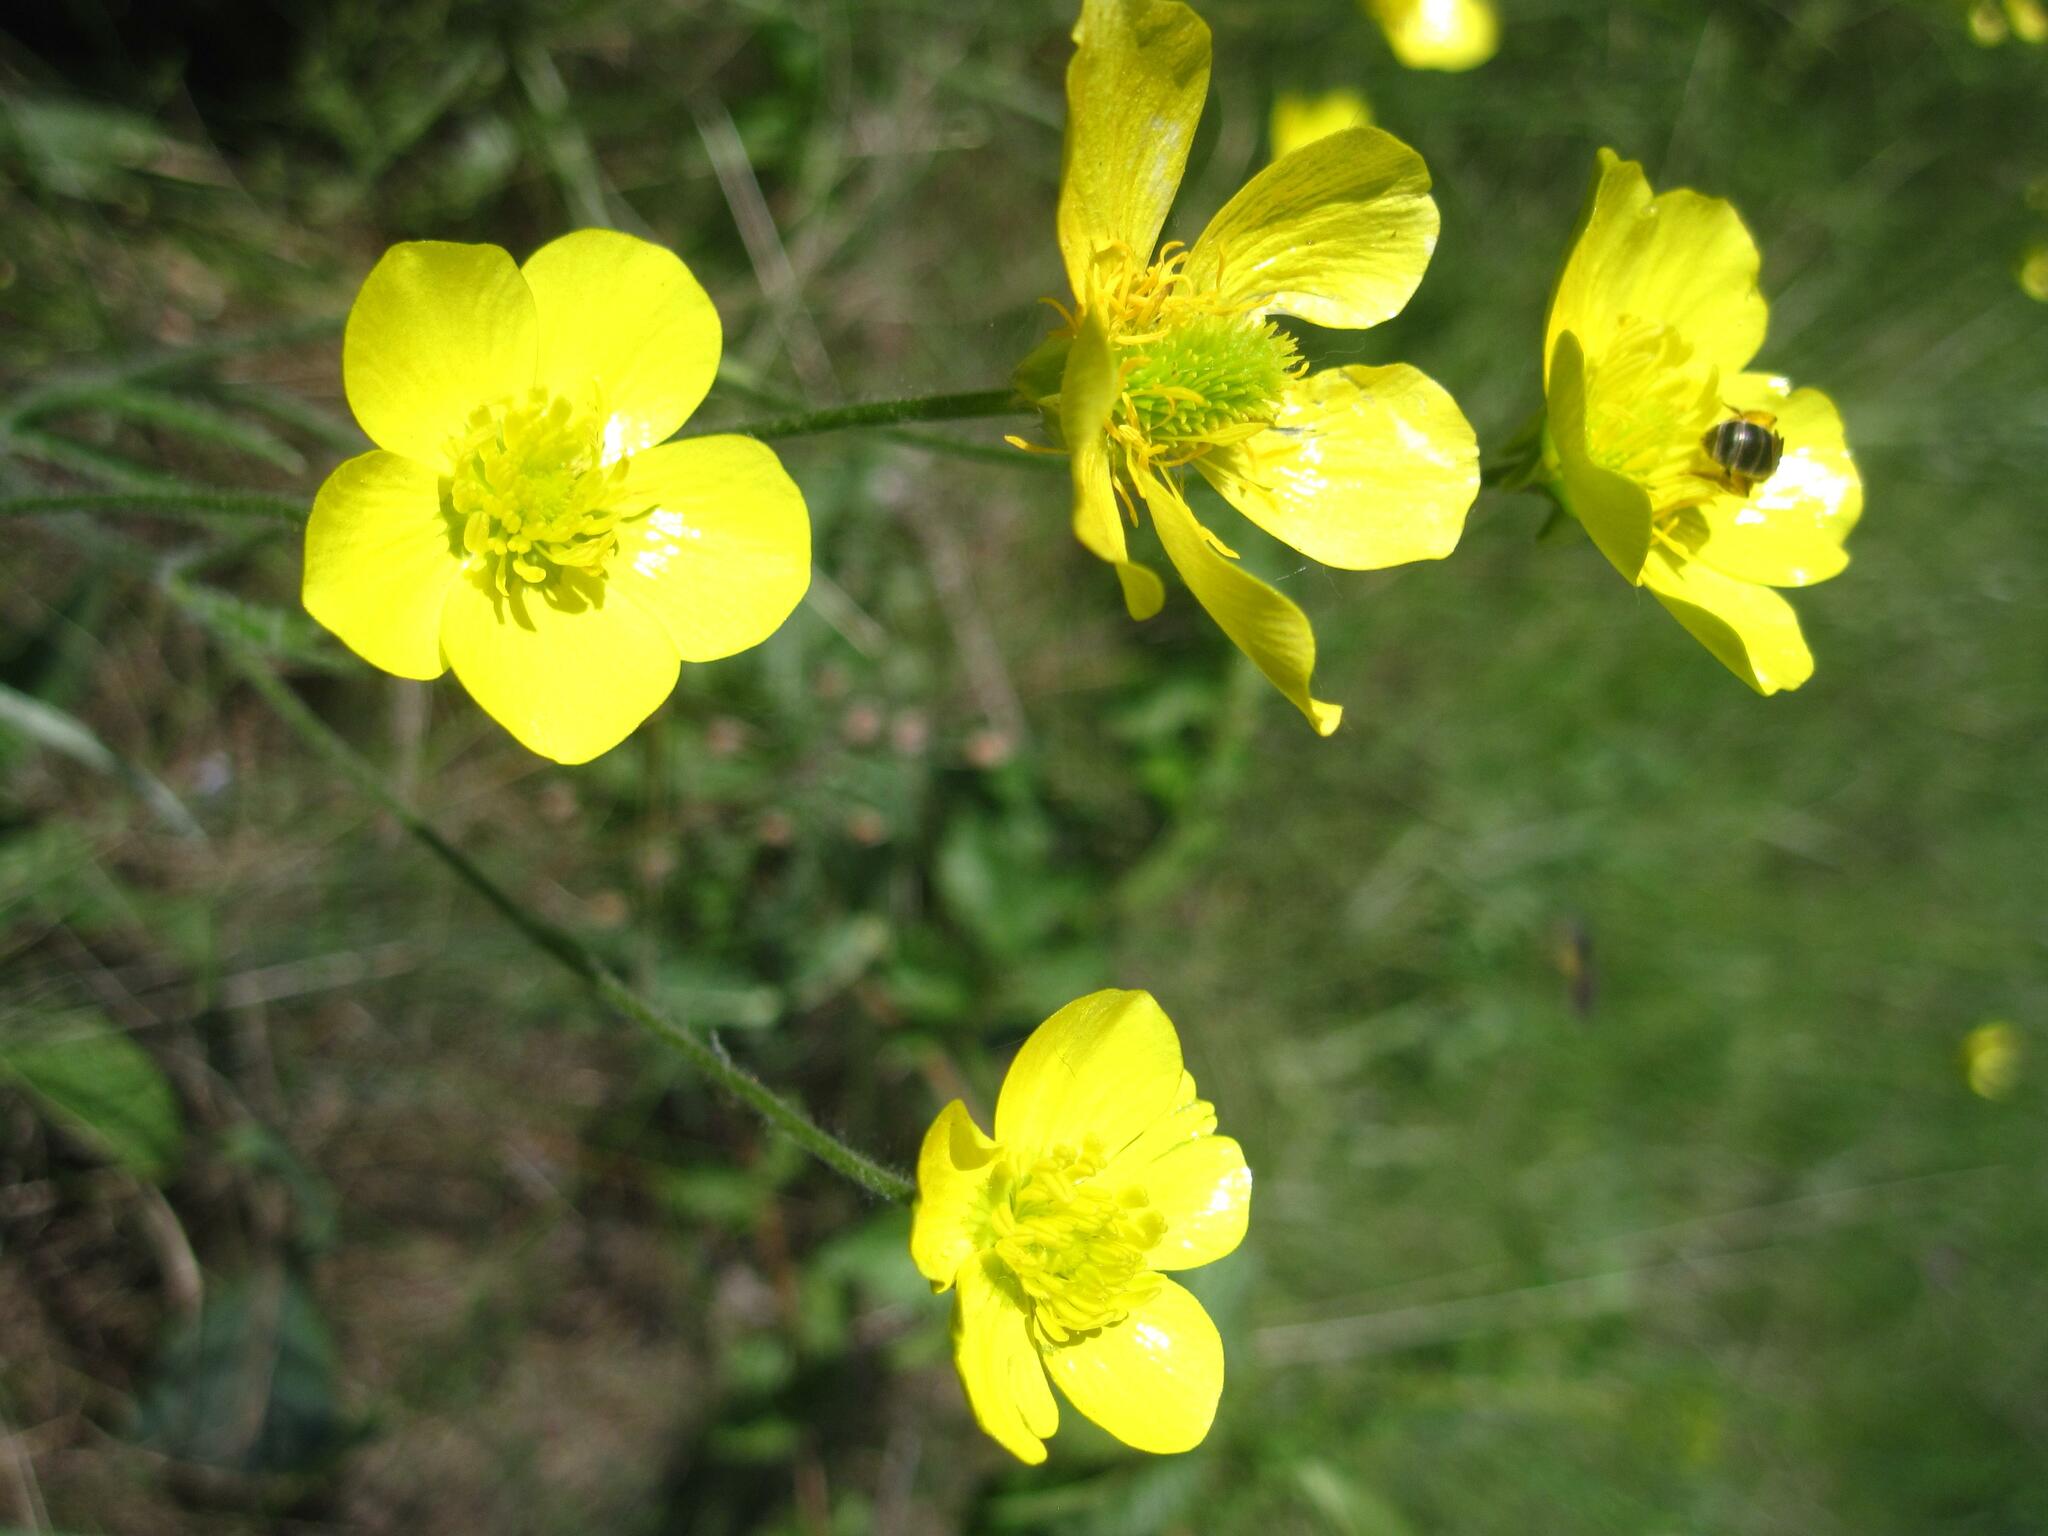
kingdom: Plantae
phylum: Tracheophyta
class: Magnoliopsida
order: Ranunculales
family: Ranunculaceae
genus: Ranunculus
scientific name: Ranunculus illyricus
